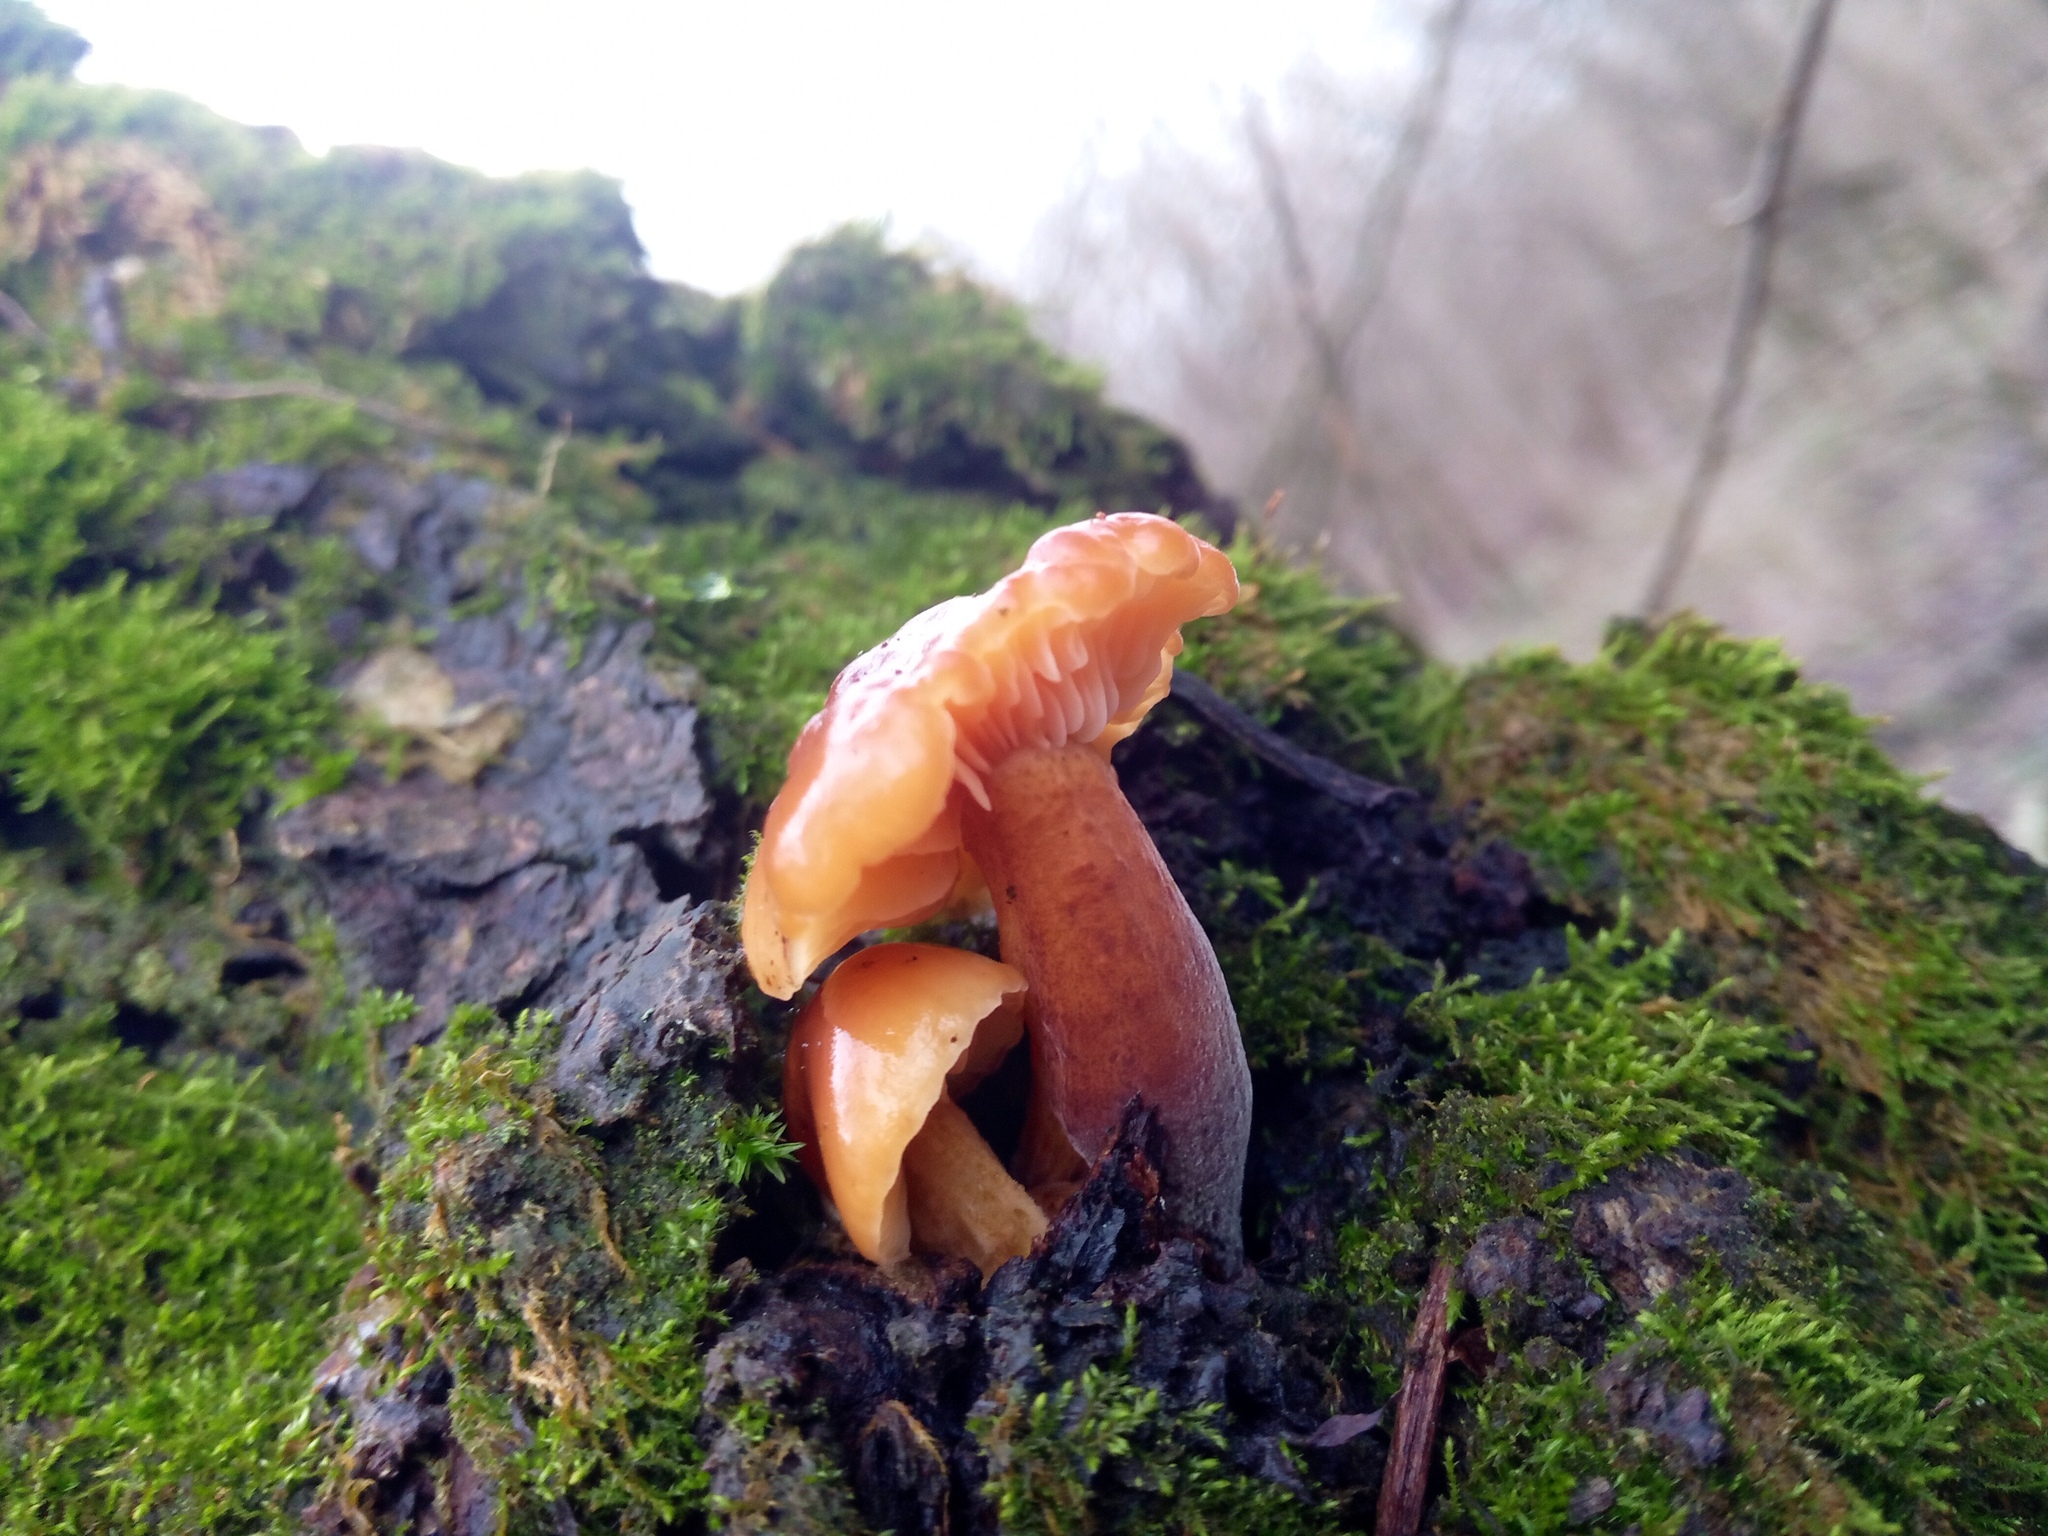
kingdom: Fungi
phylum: Basidiomycota
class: Agaricomycetes
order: Agaricales
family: Physalacriaceae
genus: Flammulina
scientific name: Flammulina
